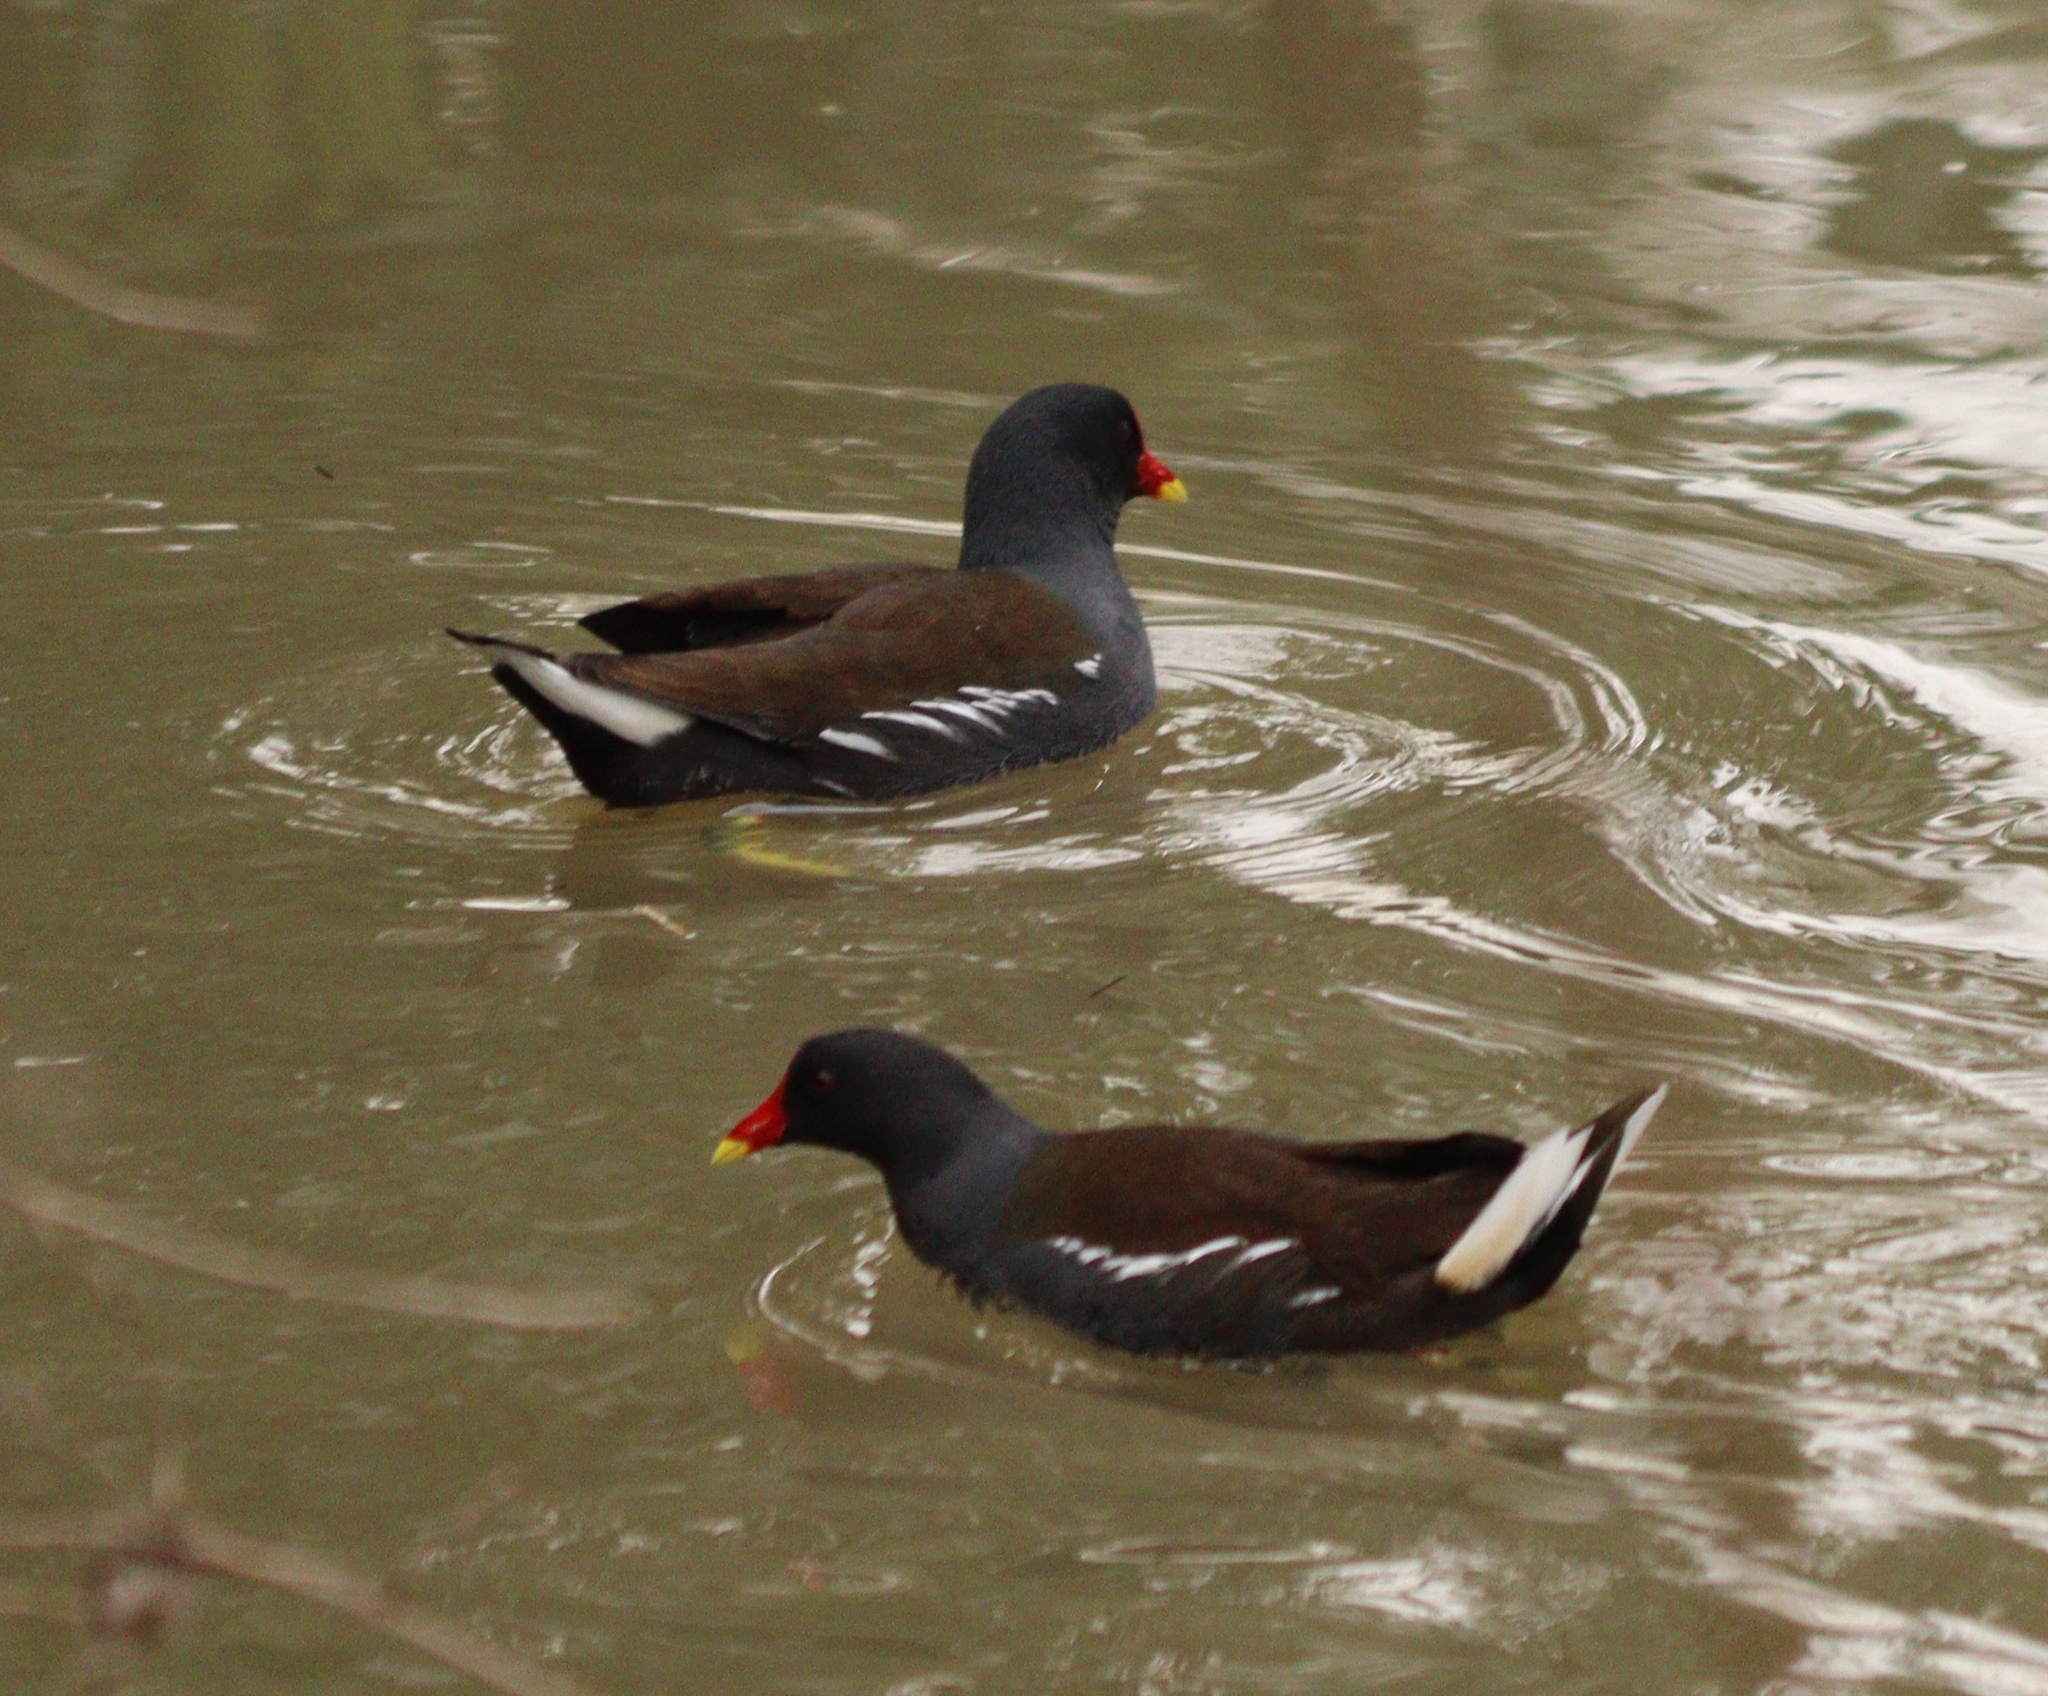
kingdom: Animalia
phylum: Chordata
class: Aves
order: Gruiformes
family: Rallidae
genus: Gallinula
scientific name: Gallinula chloropus
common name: Common moorhen
